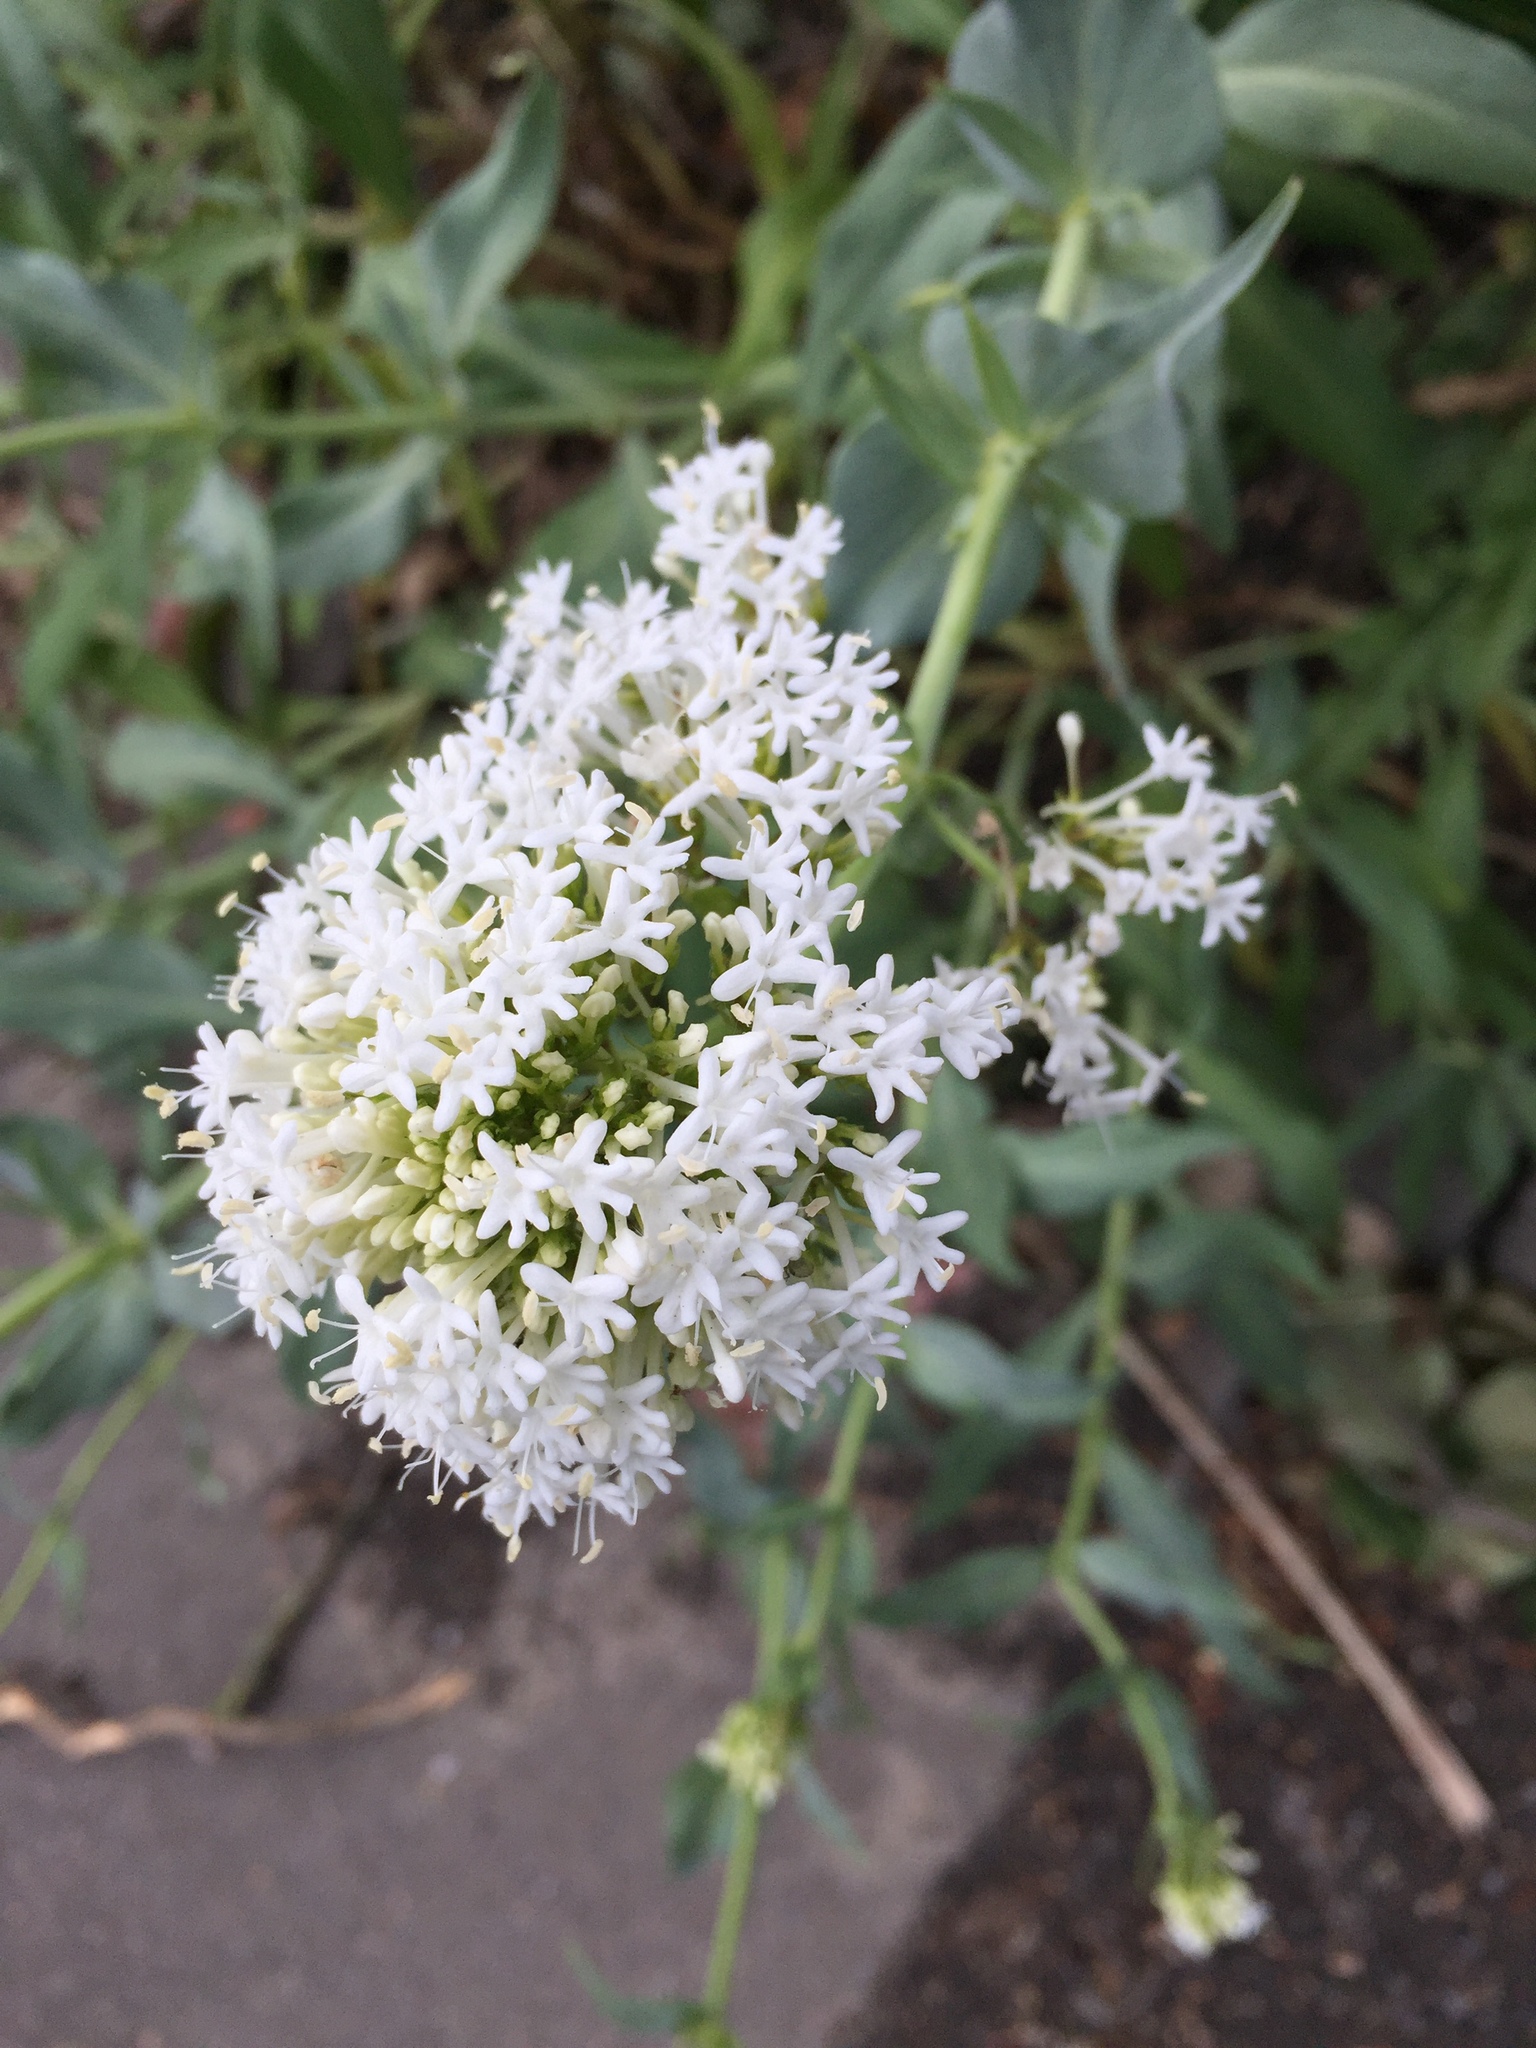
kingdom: Plantae
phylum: Tracheophyta
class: Magnoliopsida
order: Dipsacales
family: Caprifoliaceae
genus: Centranthus
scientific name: Centranthus ruber
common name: Red valerian
